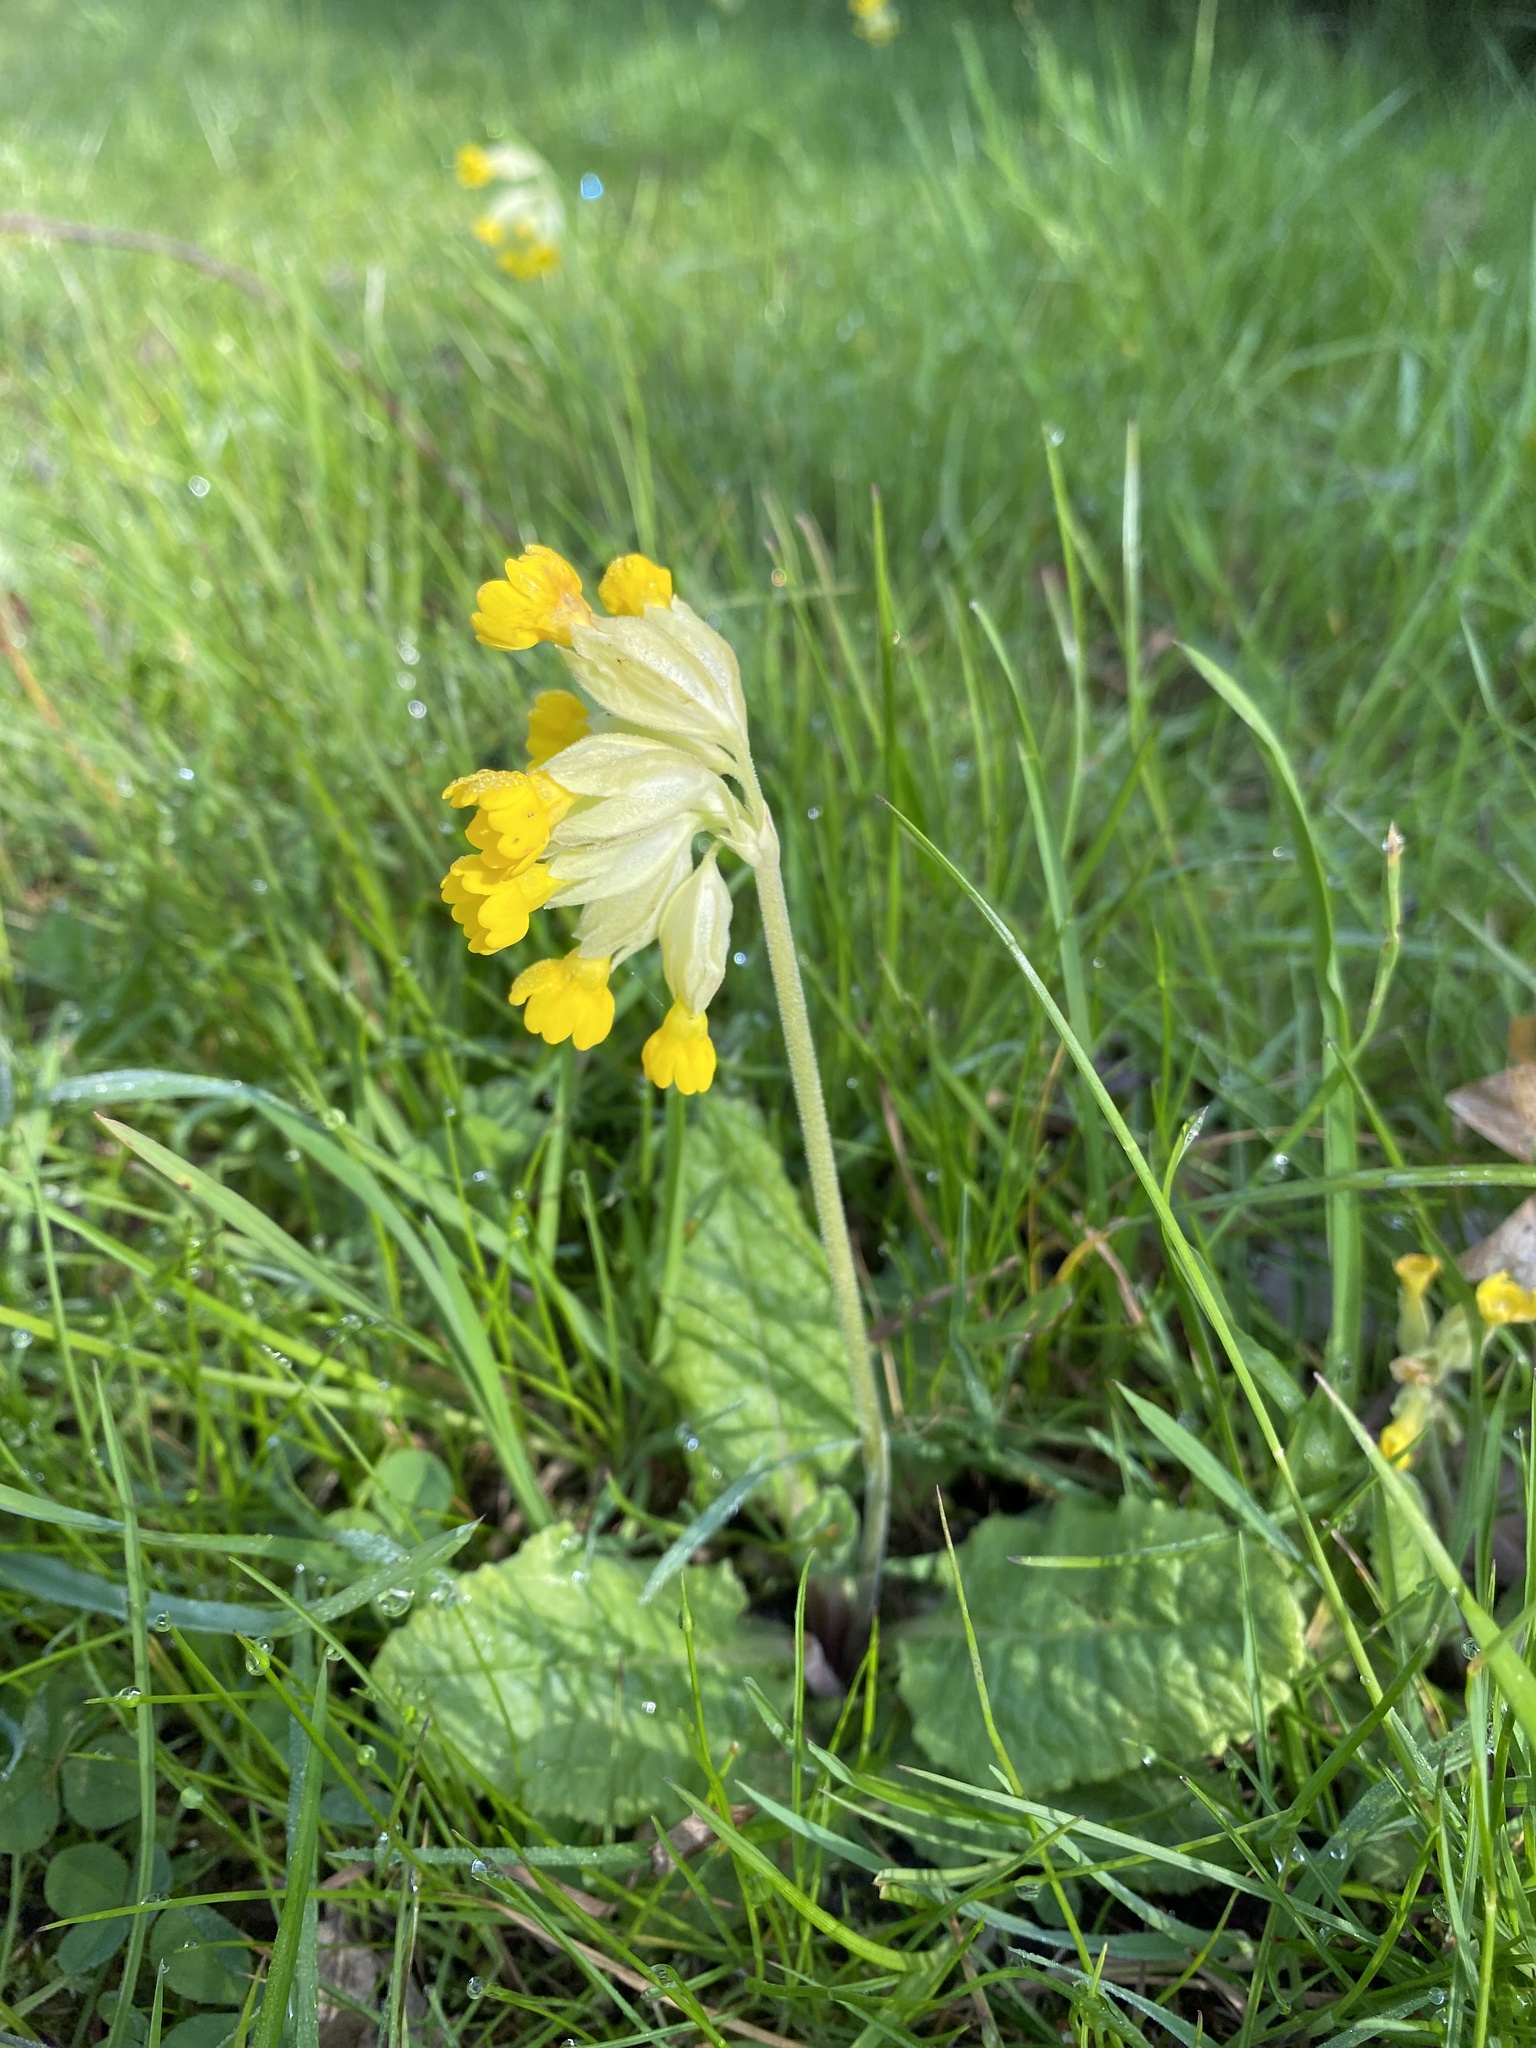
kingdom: Plantae
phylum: Tracheophyta
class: Magnoliopsida
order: Ericales
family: Primulaceae
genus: Primula
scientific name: Primula veris
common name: Cowslip
